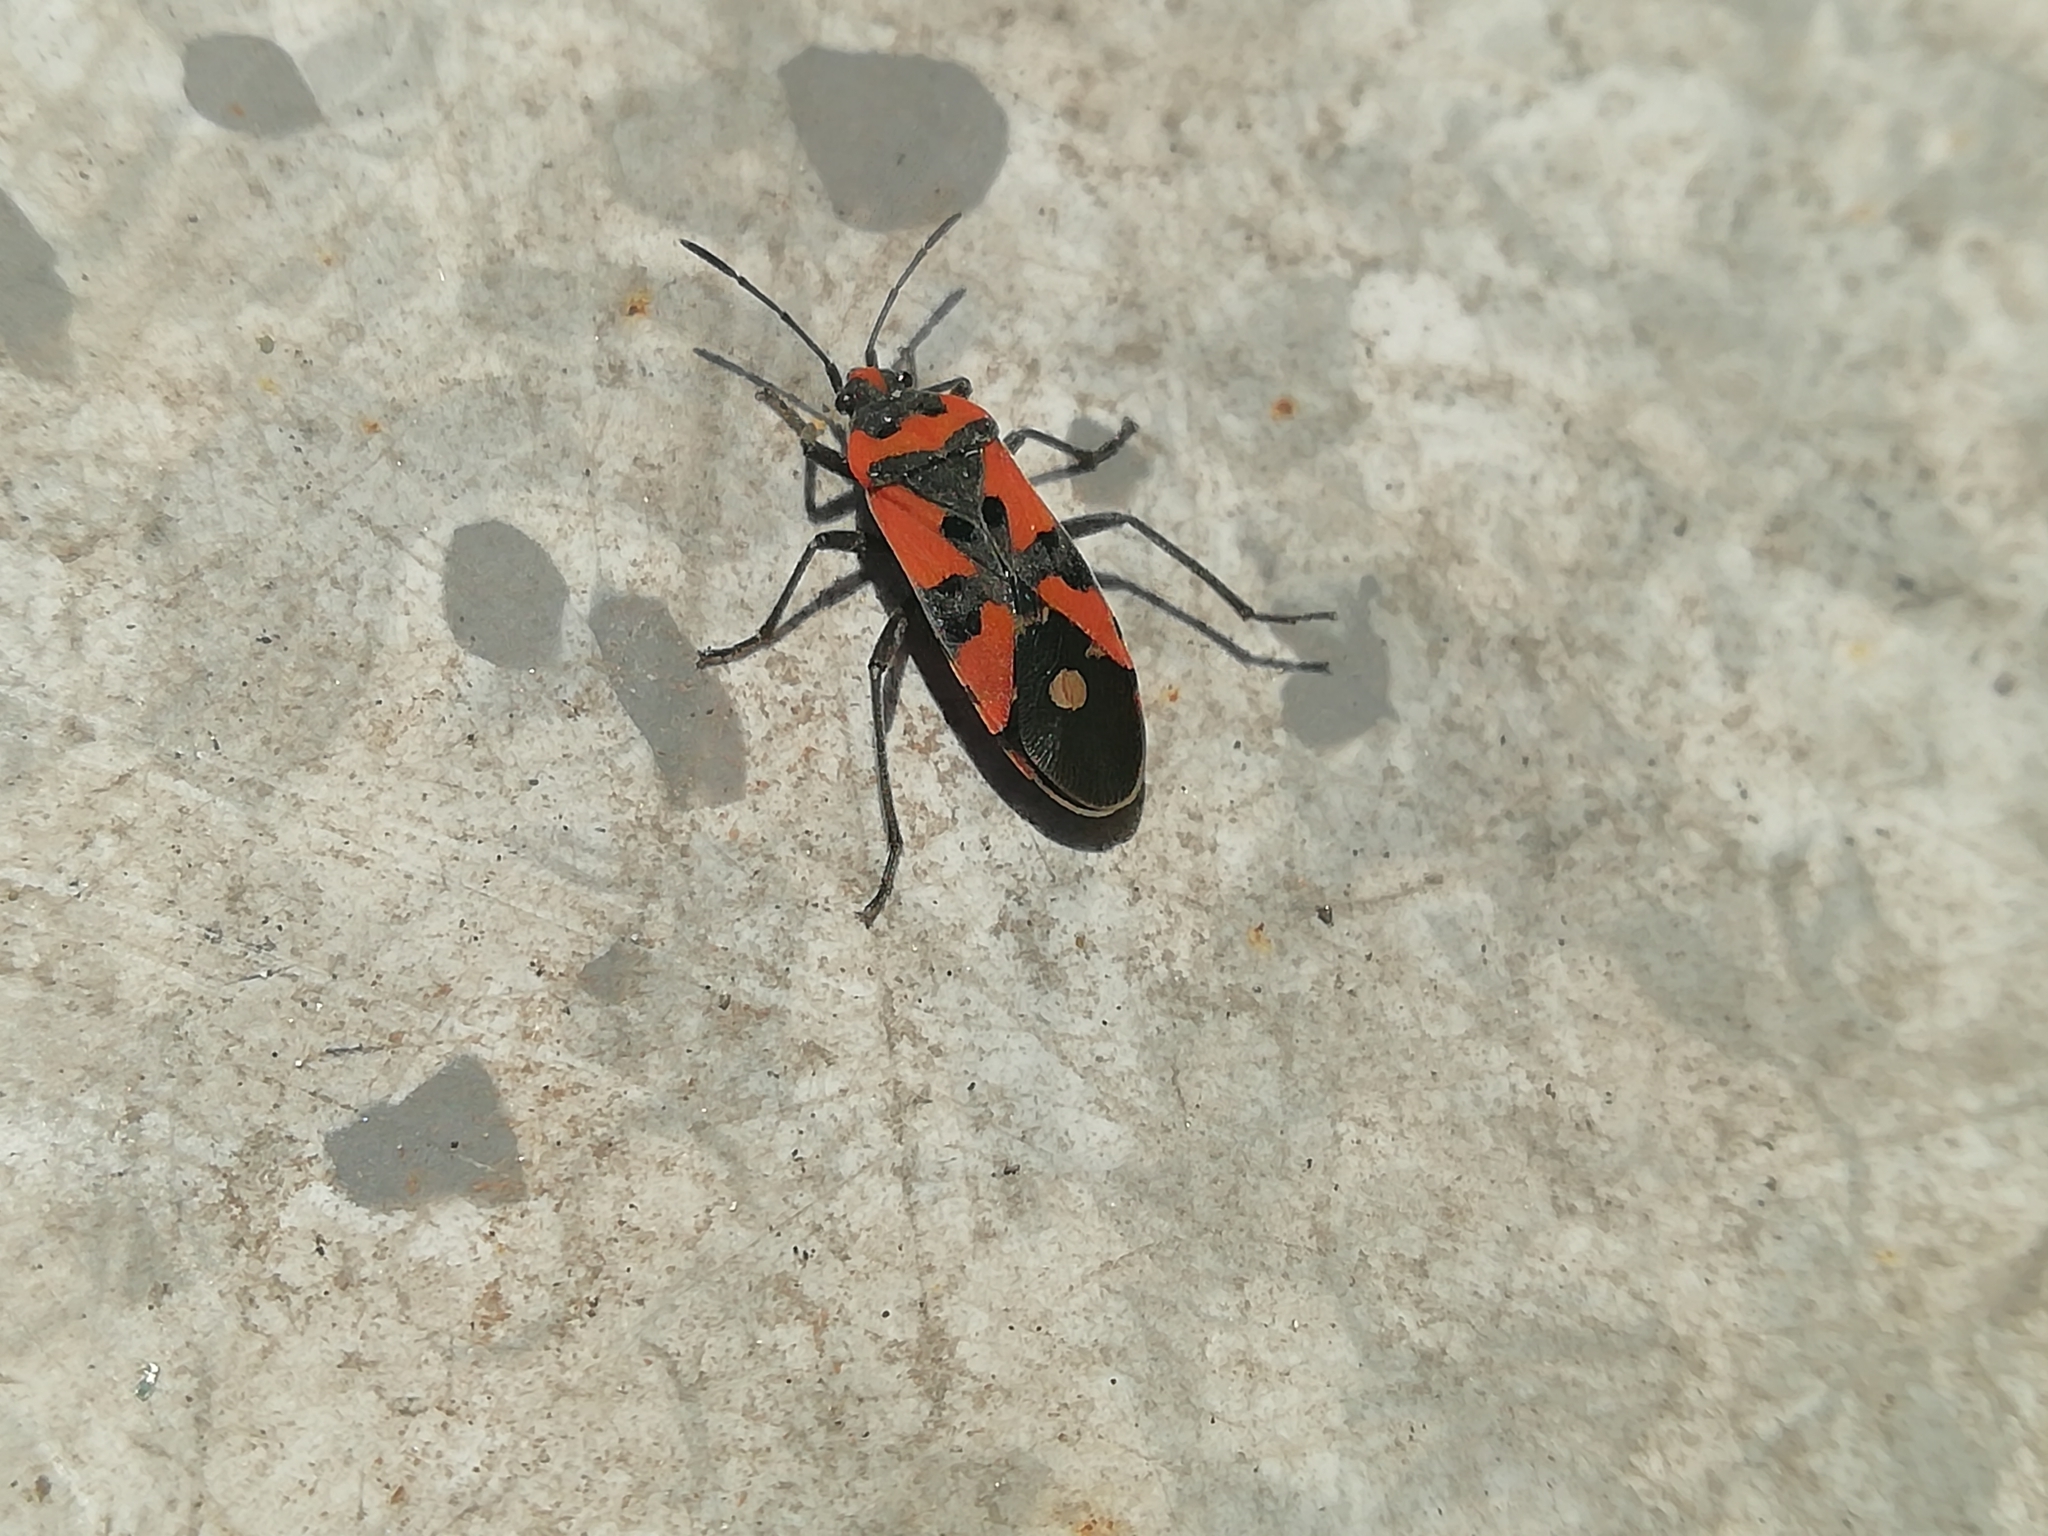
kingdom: Animalia
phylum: Arthropoda
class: Insecta
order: Hemiptera
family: Lygaeidae
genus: Lygaeus
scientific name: Lygaeus equestris
